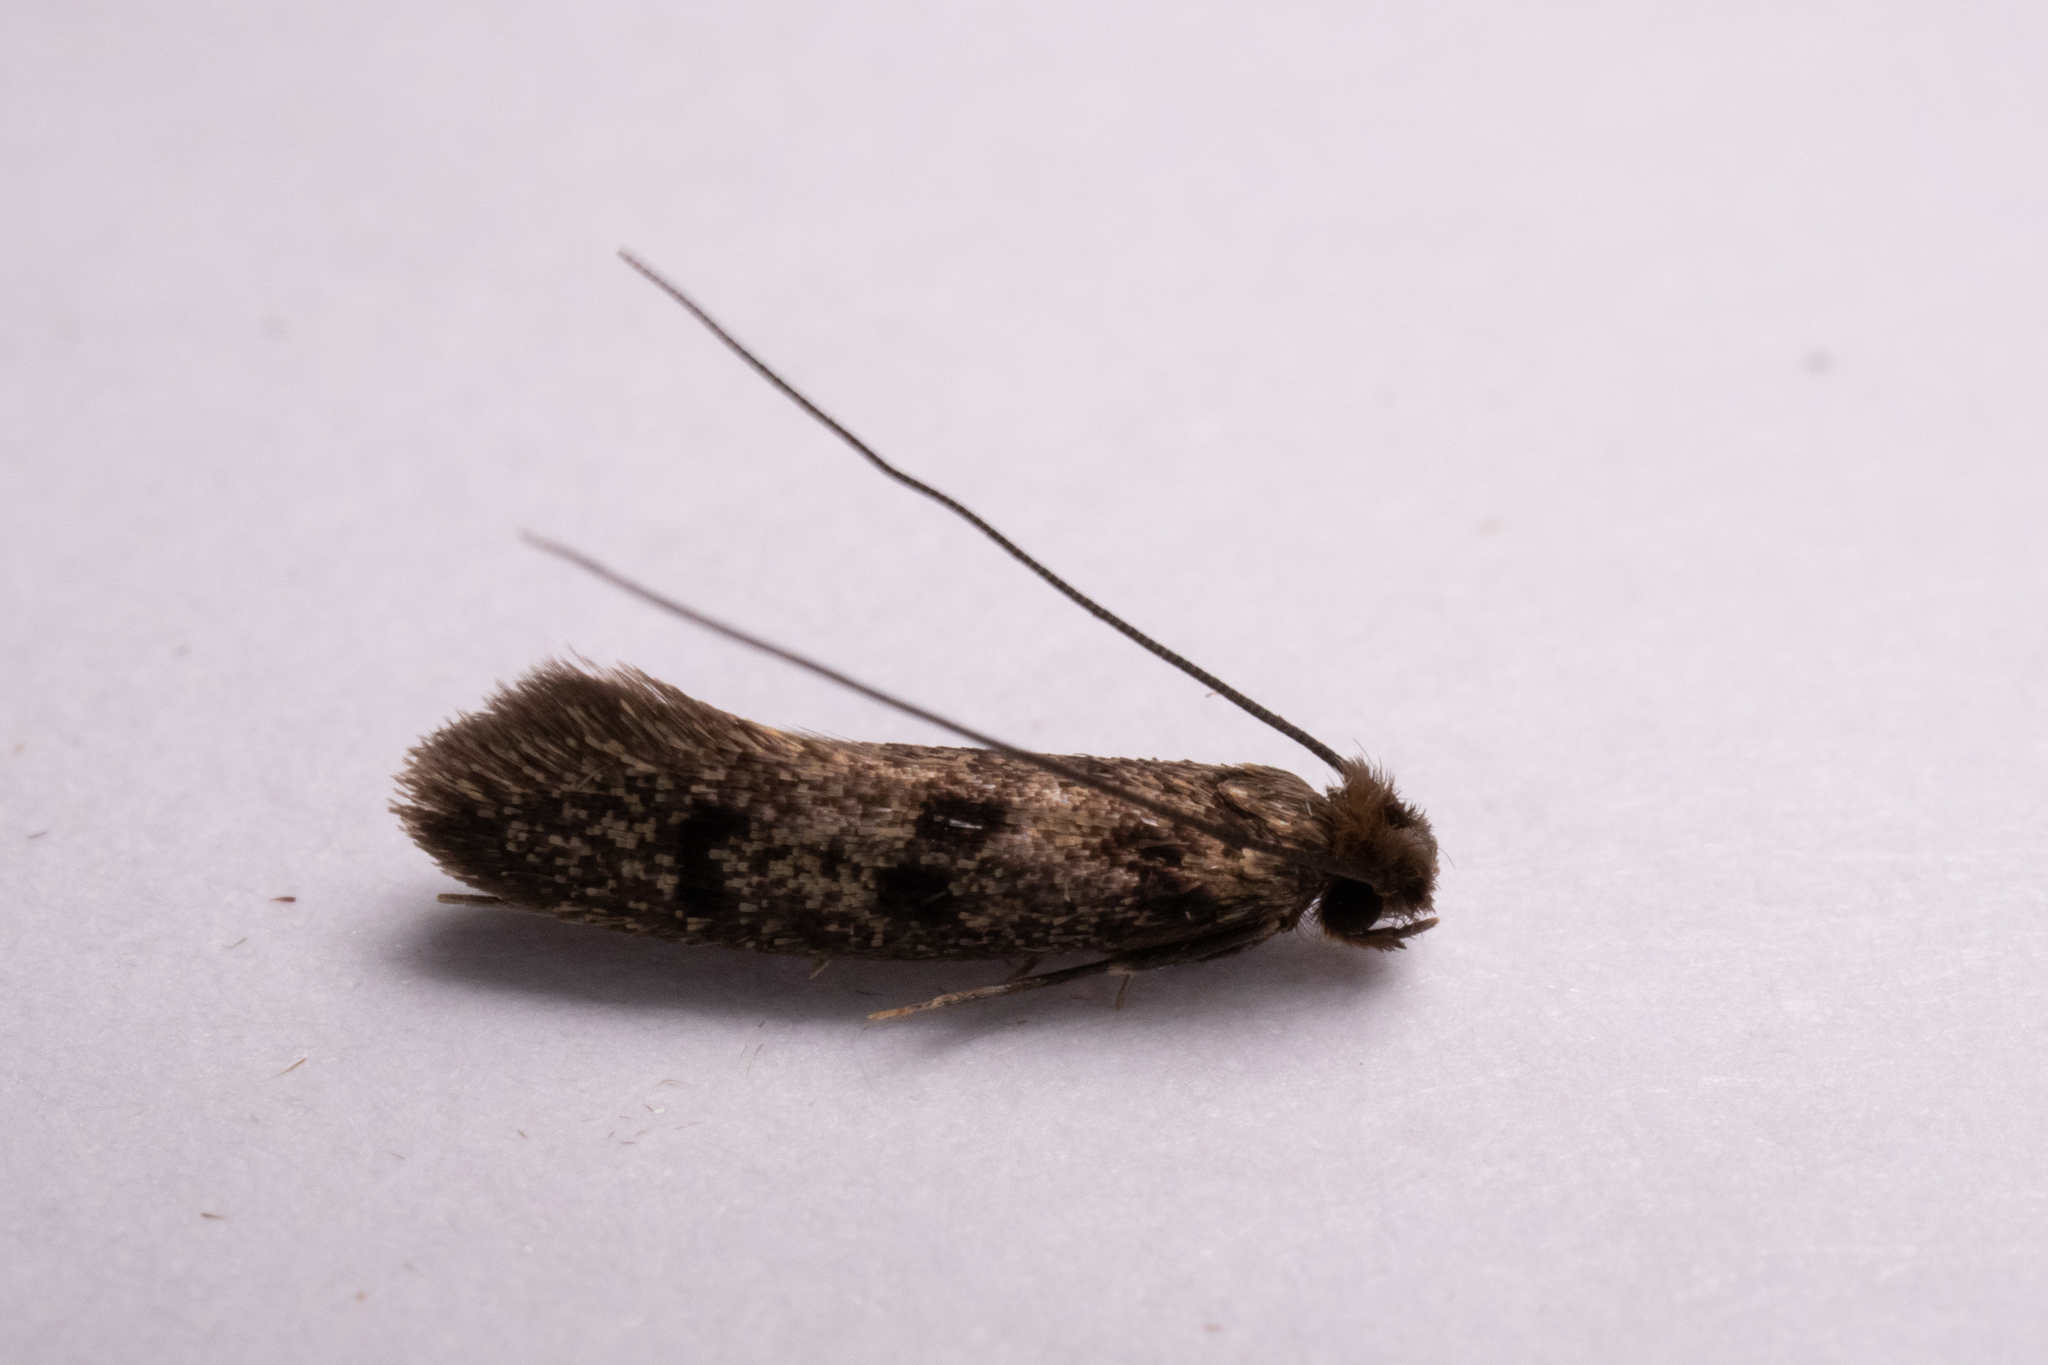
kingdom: Animalia
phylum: Arthropoda
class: Insecta
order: Lepidoptera
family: Tineidae
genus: Phereoeca
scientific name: Phereoeca uterella
